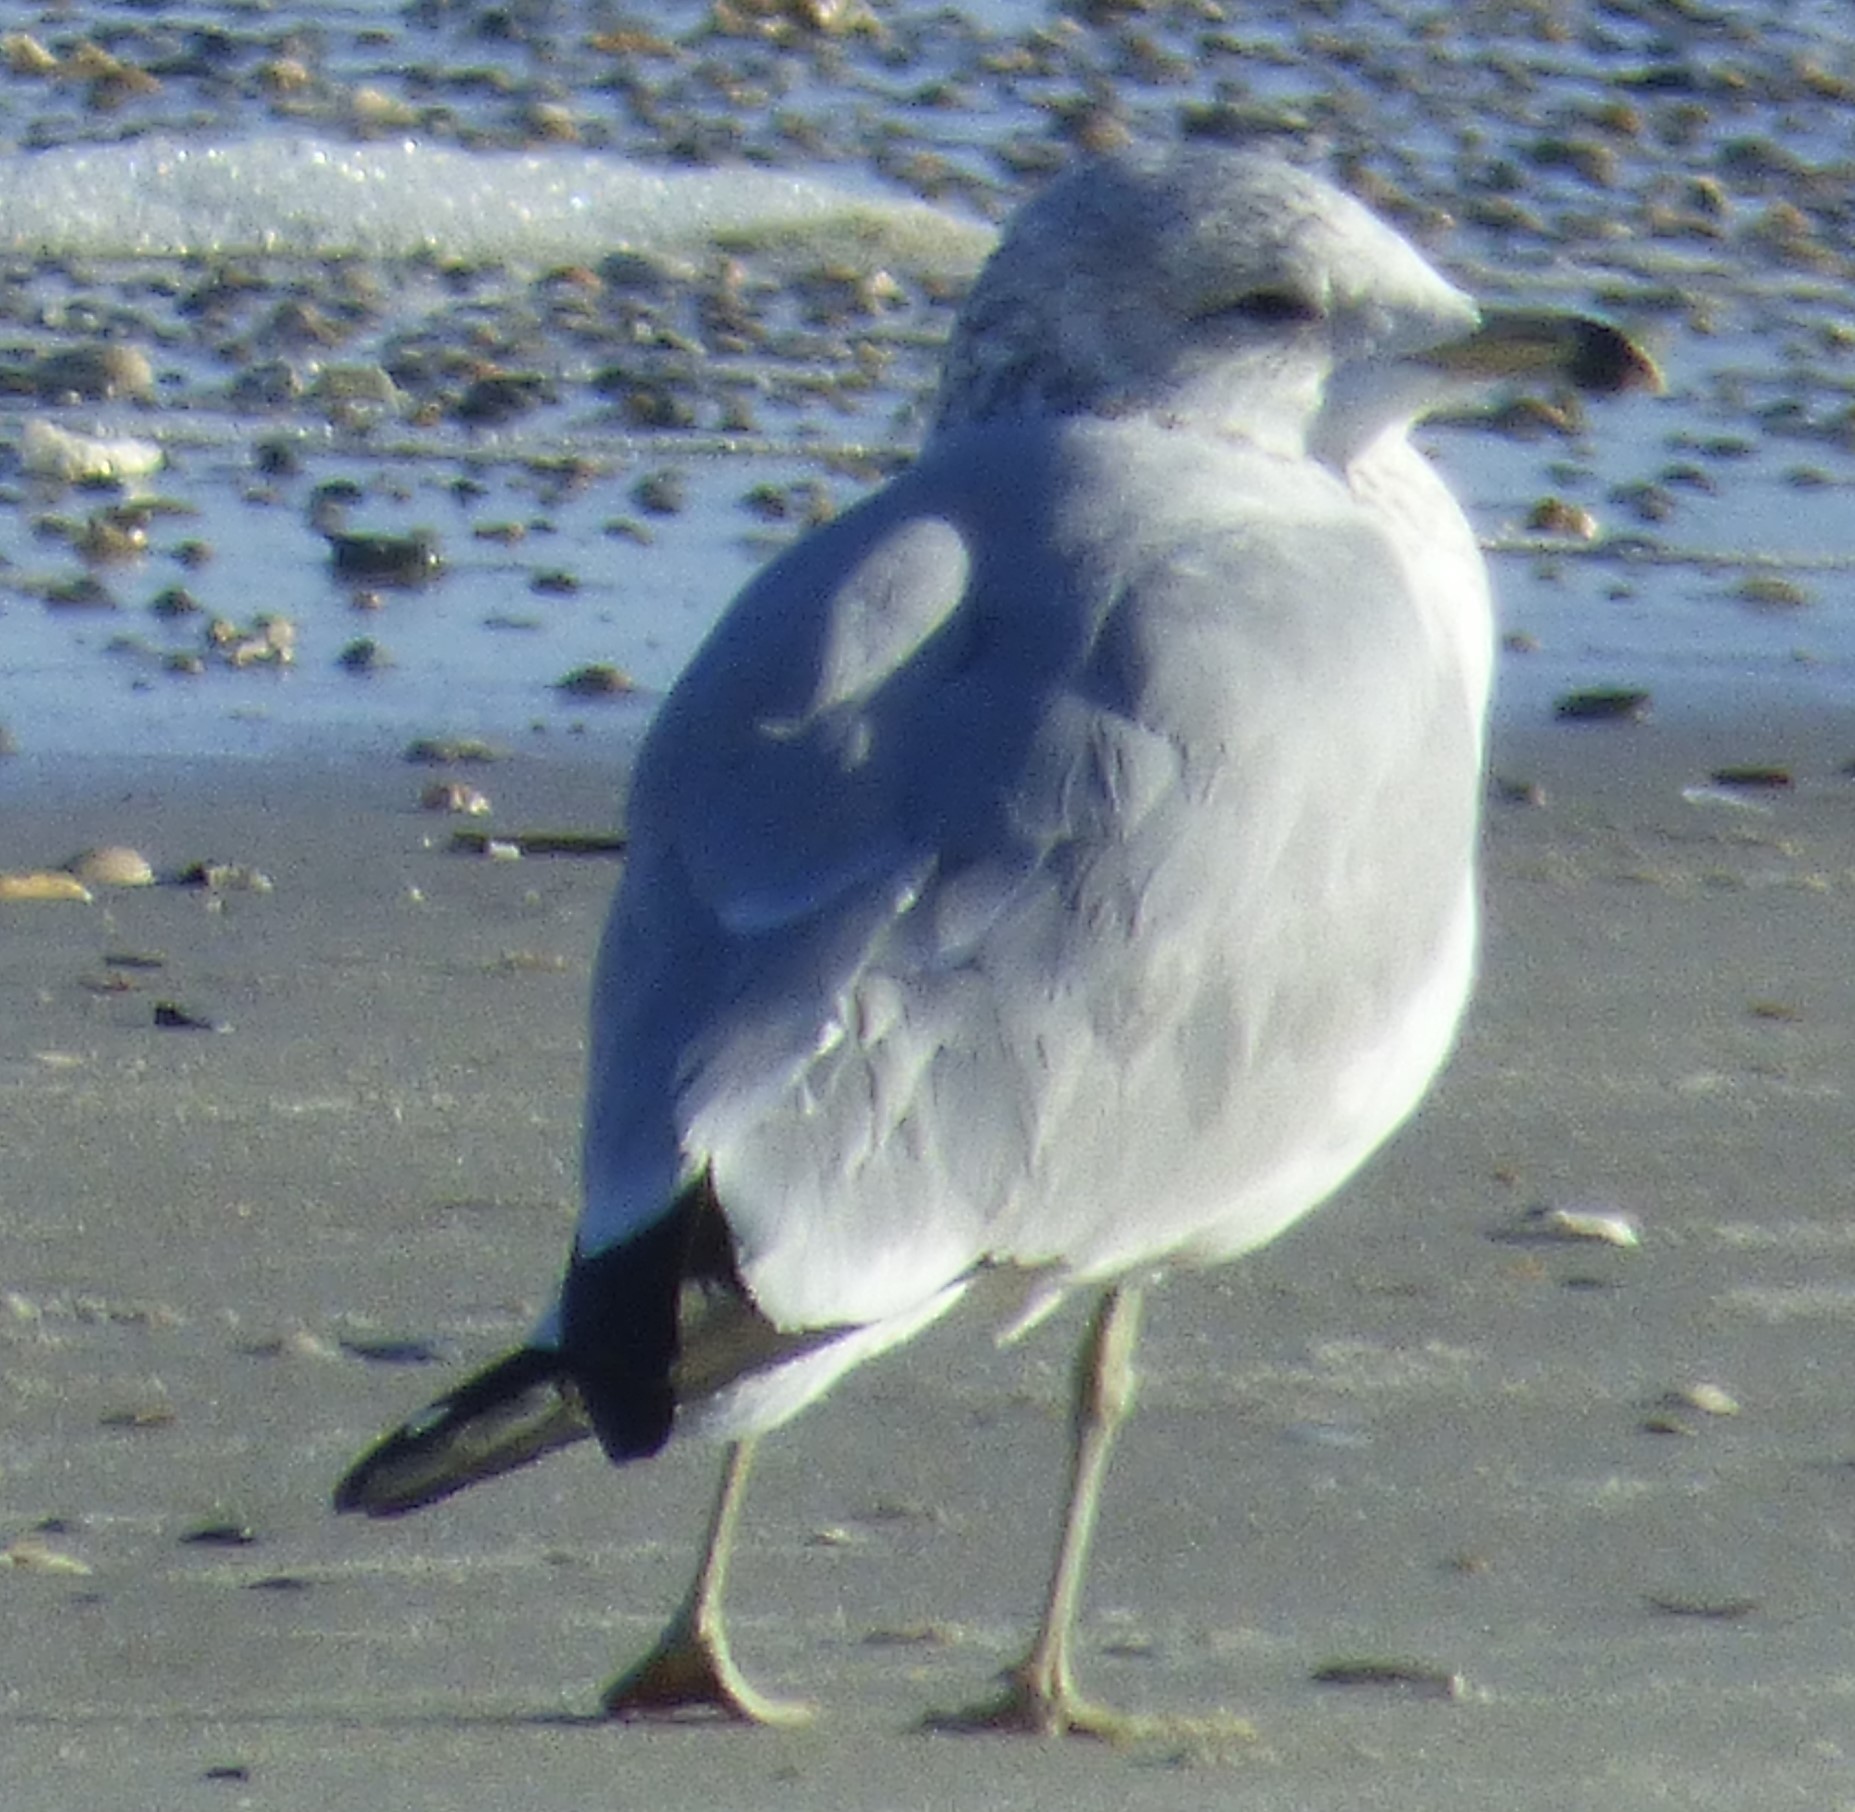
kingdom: Animalia
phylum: Chordata
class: Aves
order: Charadriiformes
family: Laridae
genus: Larus
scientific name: Larus delawarensis
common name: Ring-billed gull
